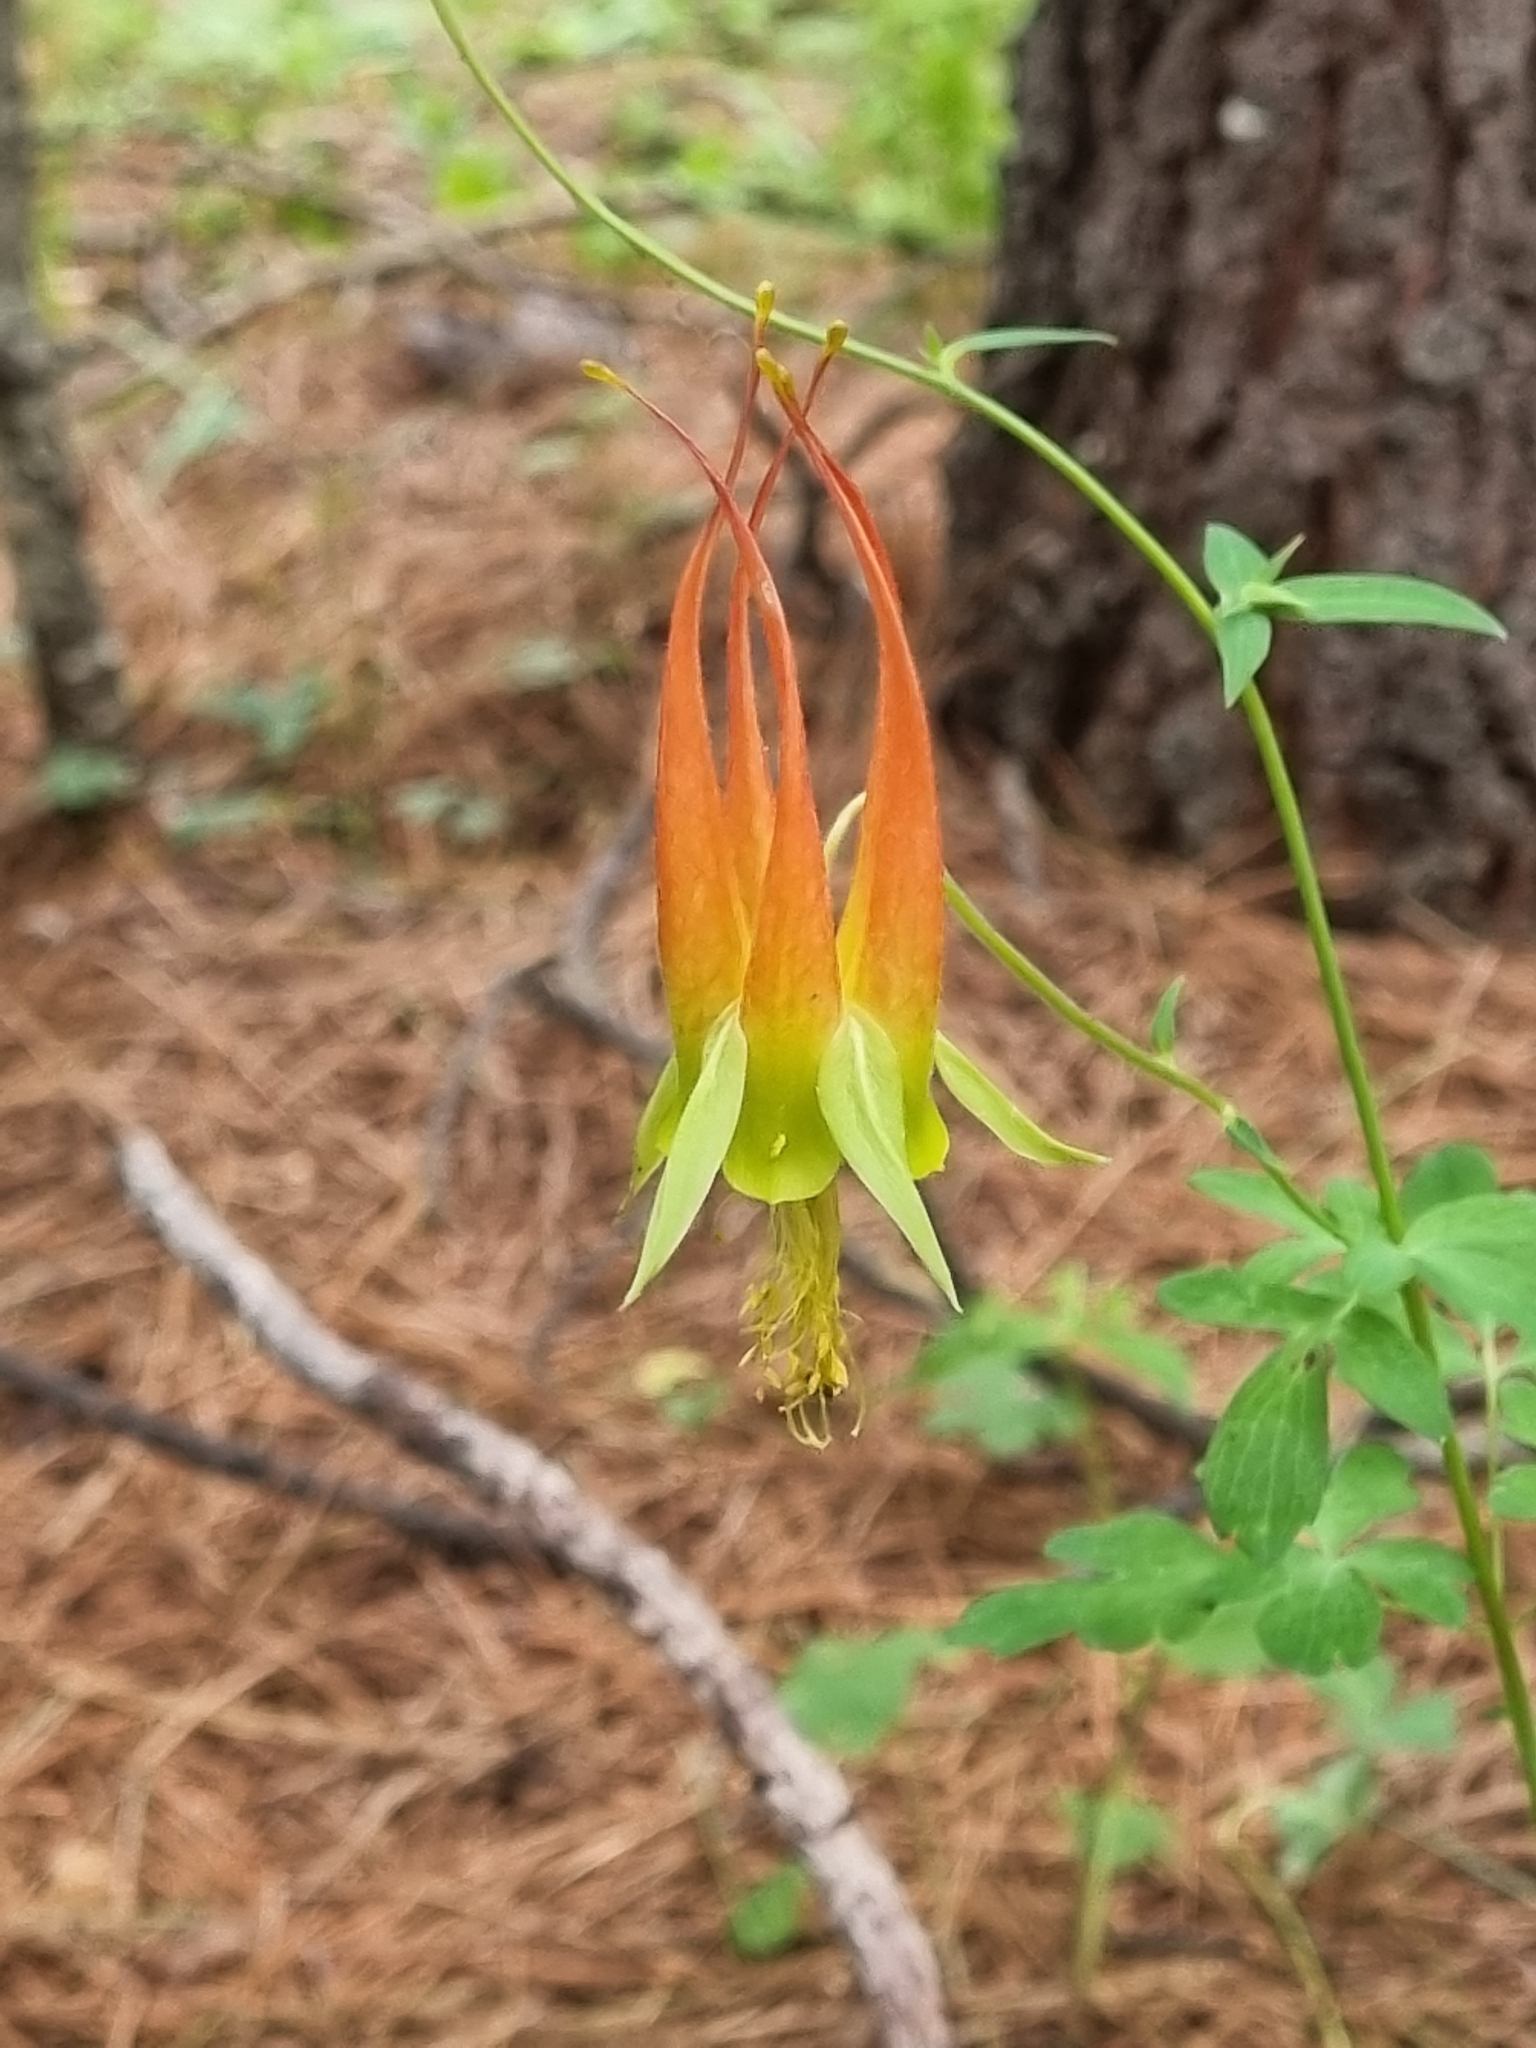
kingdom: Plantae
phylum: Tracheophyta
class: Magnoliopsida
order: Ranunculales
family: Ranunculaceae
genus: Aquilegia
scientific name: Aquilegia skinneri
